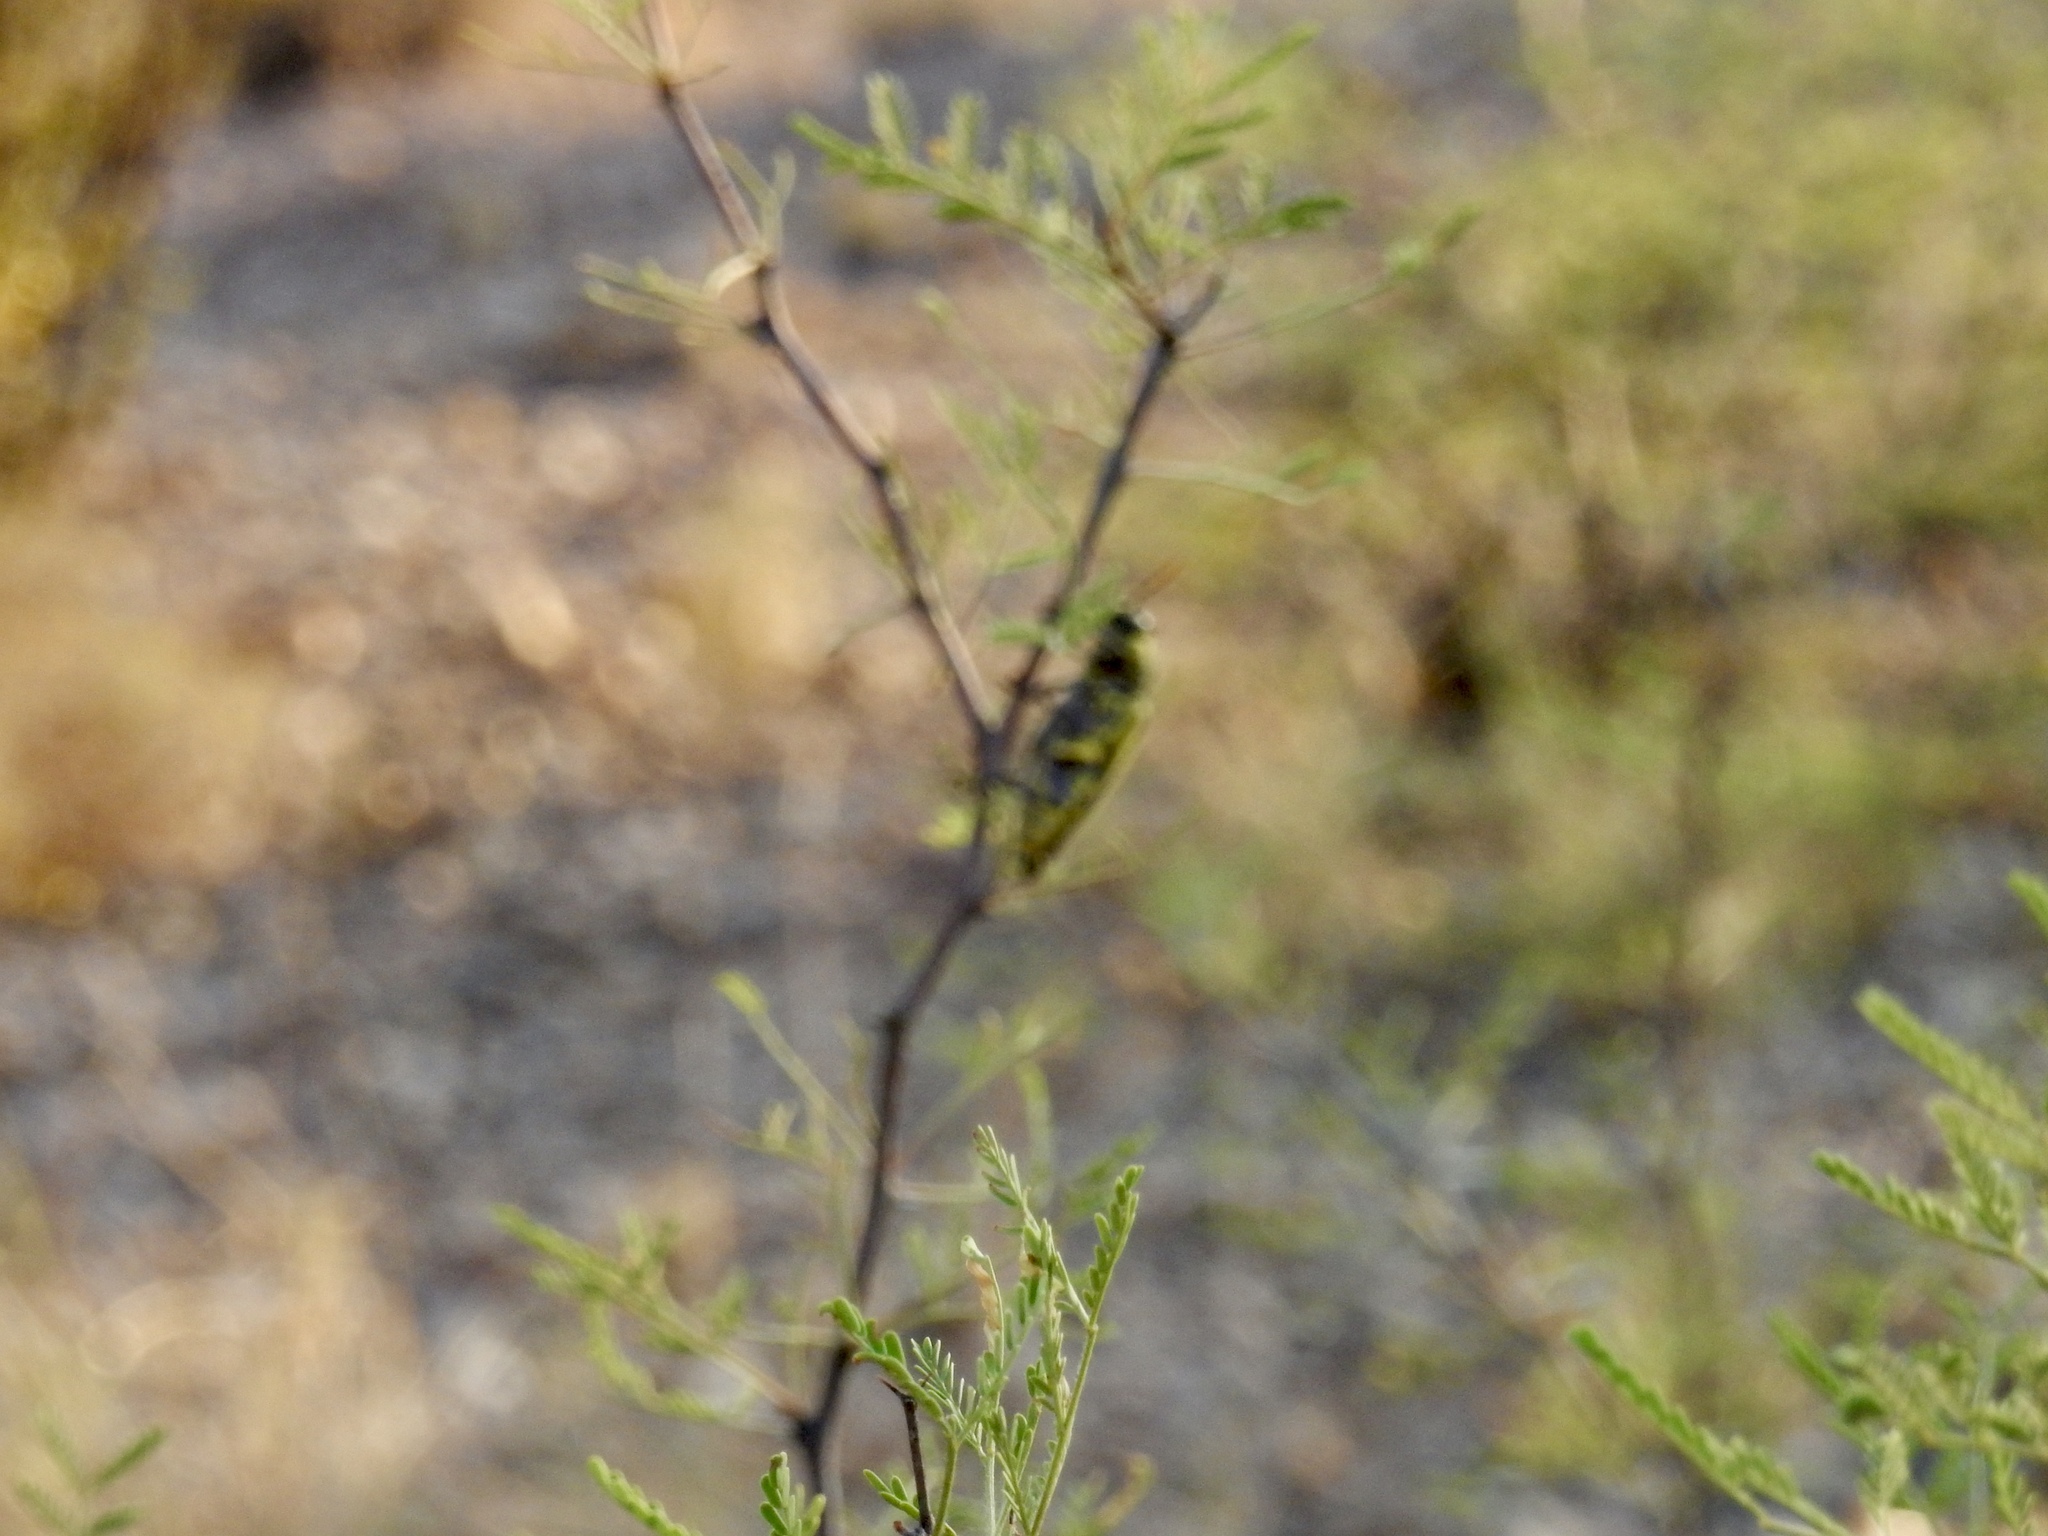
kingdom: Animalia
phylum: Arthropoda
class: Insecta
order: Coleoptera
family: Buprestidae
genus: Gyascutus
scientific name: Gyascutus caelatus
